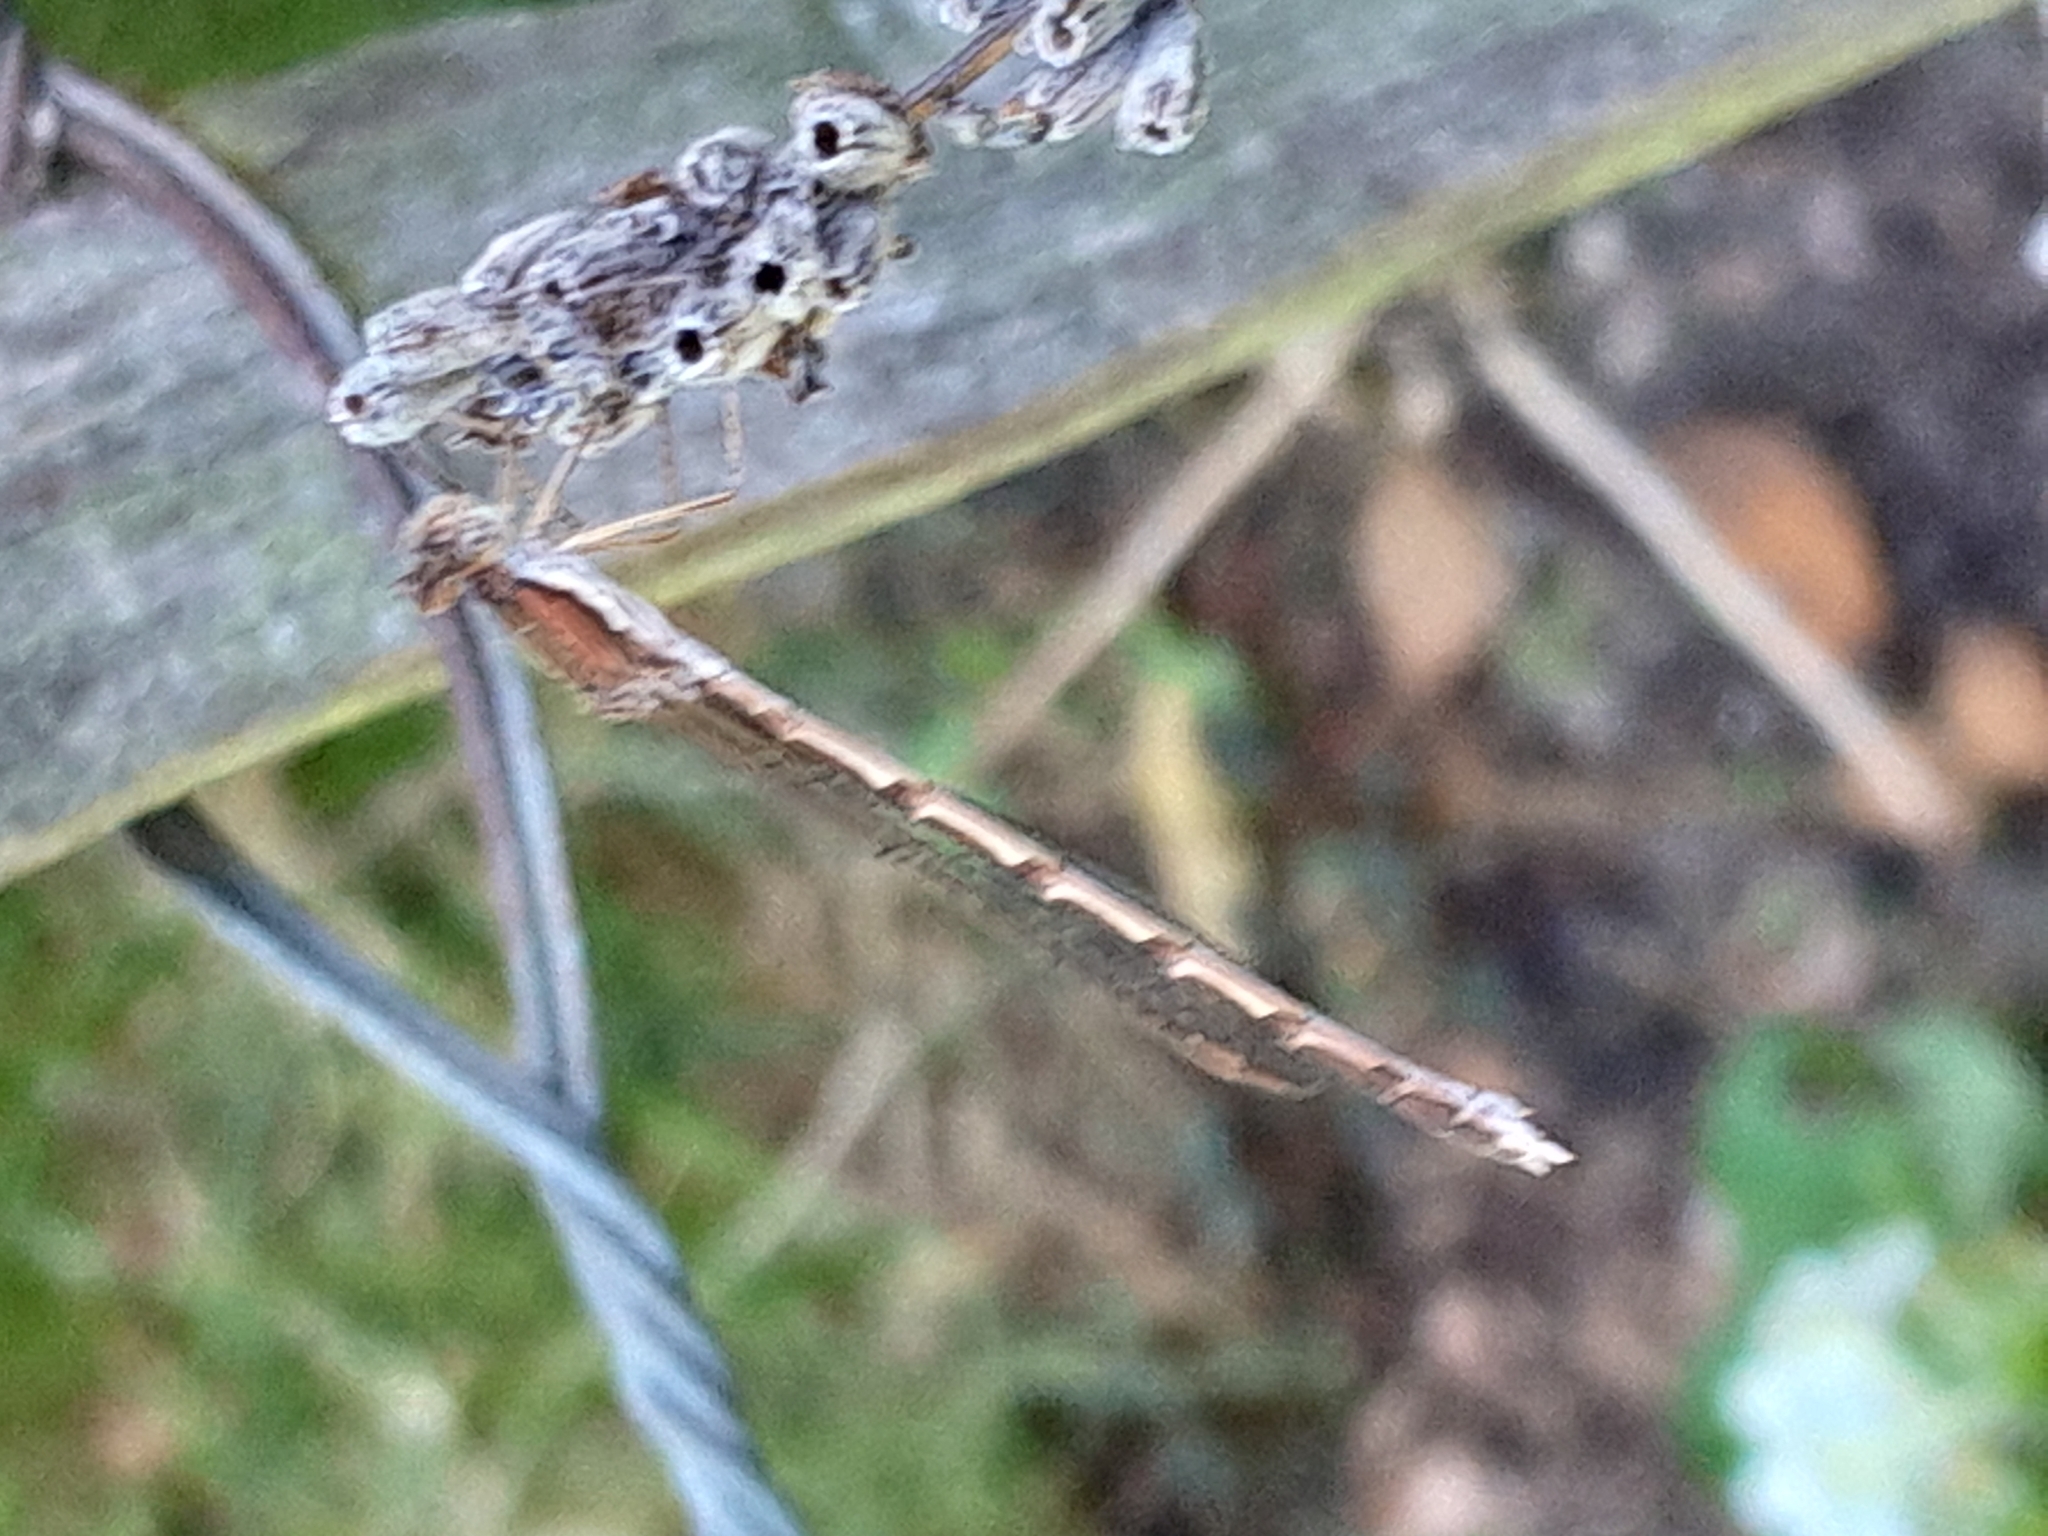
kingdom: Animalia
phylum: Arthropoda
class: Insecta
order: Odonata
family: Lestidae
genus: Sympecma
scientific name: Sympecma fusca
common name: Common winter damsel
